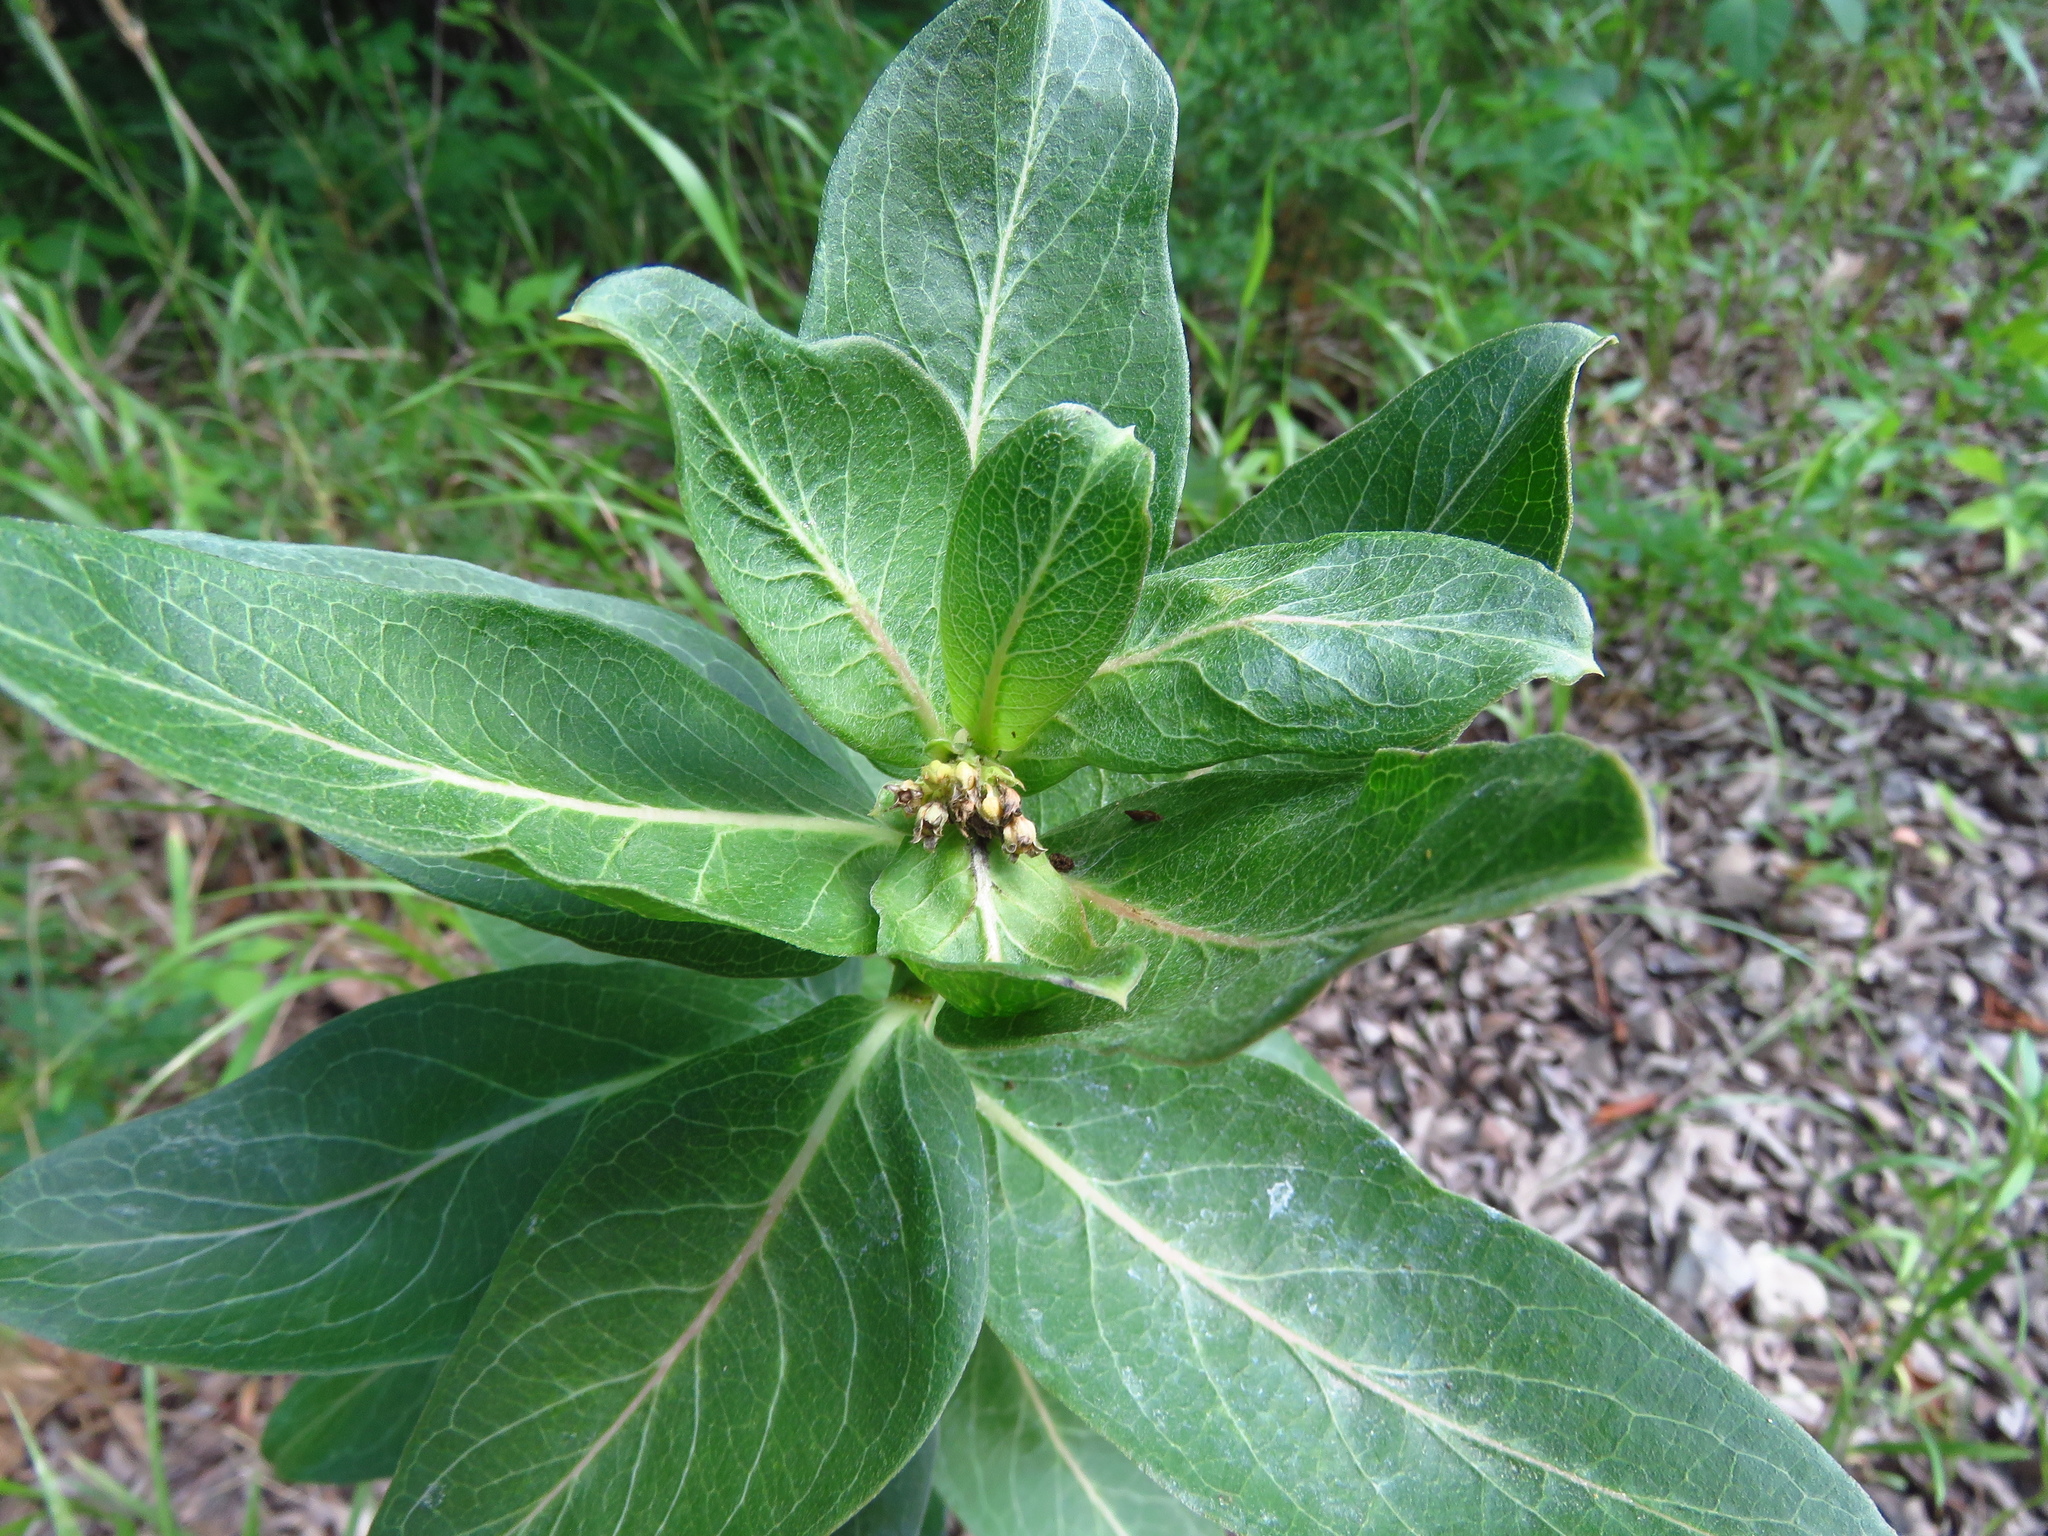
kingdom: Plantae
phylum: Tracheophyta
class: Magnoliopsida
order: Gentianales
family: Apocynaceae
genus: Asclepias
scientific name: Asclepias viridis
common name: Antelope-horns
